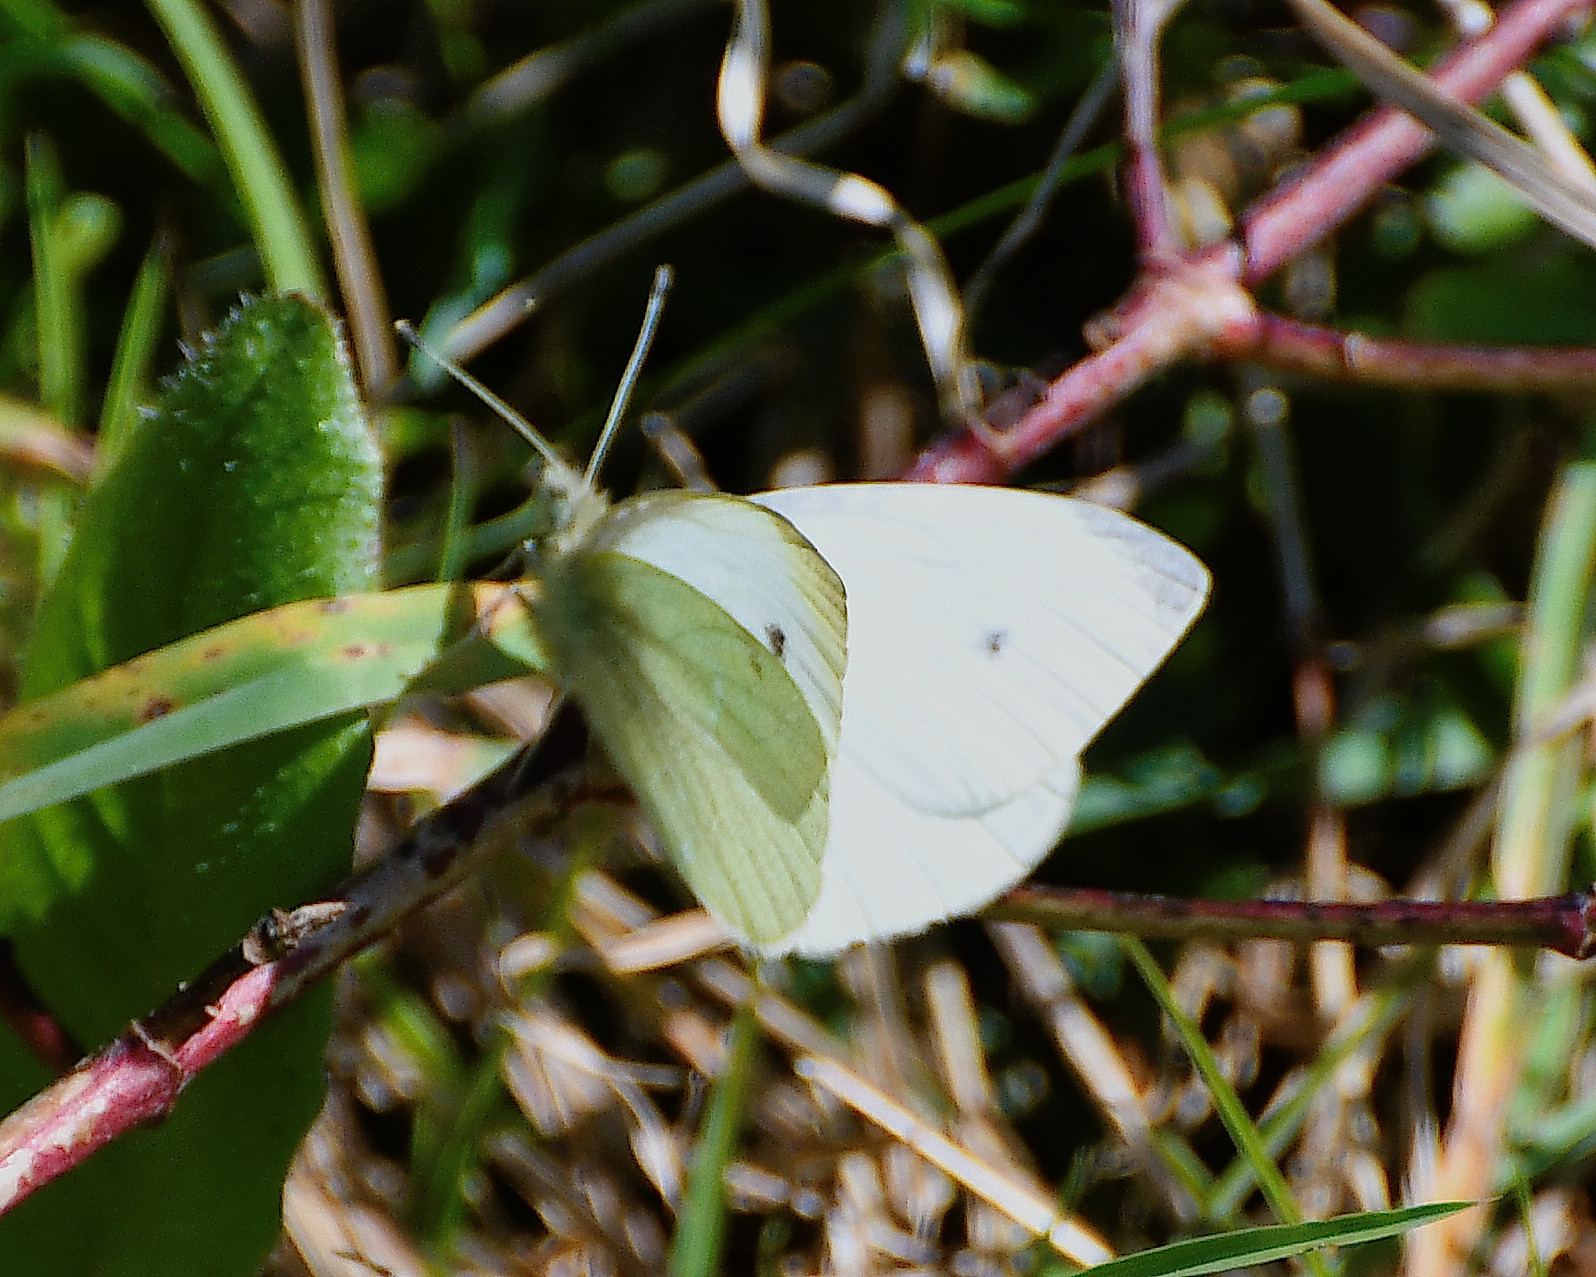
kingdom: Animalia
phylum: Arthropoda
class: Insecta
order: Lepidoptera
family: Pieridae
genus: Pieris
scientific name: Pieris rapae
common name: Small white
